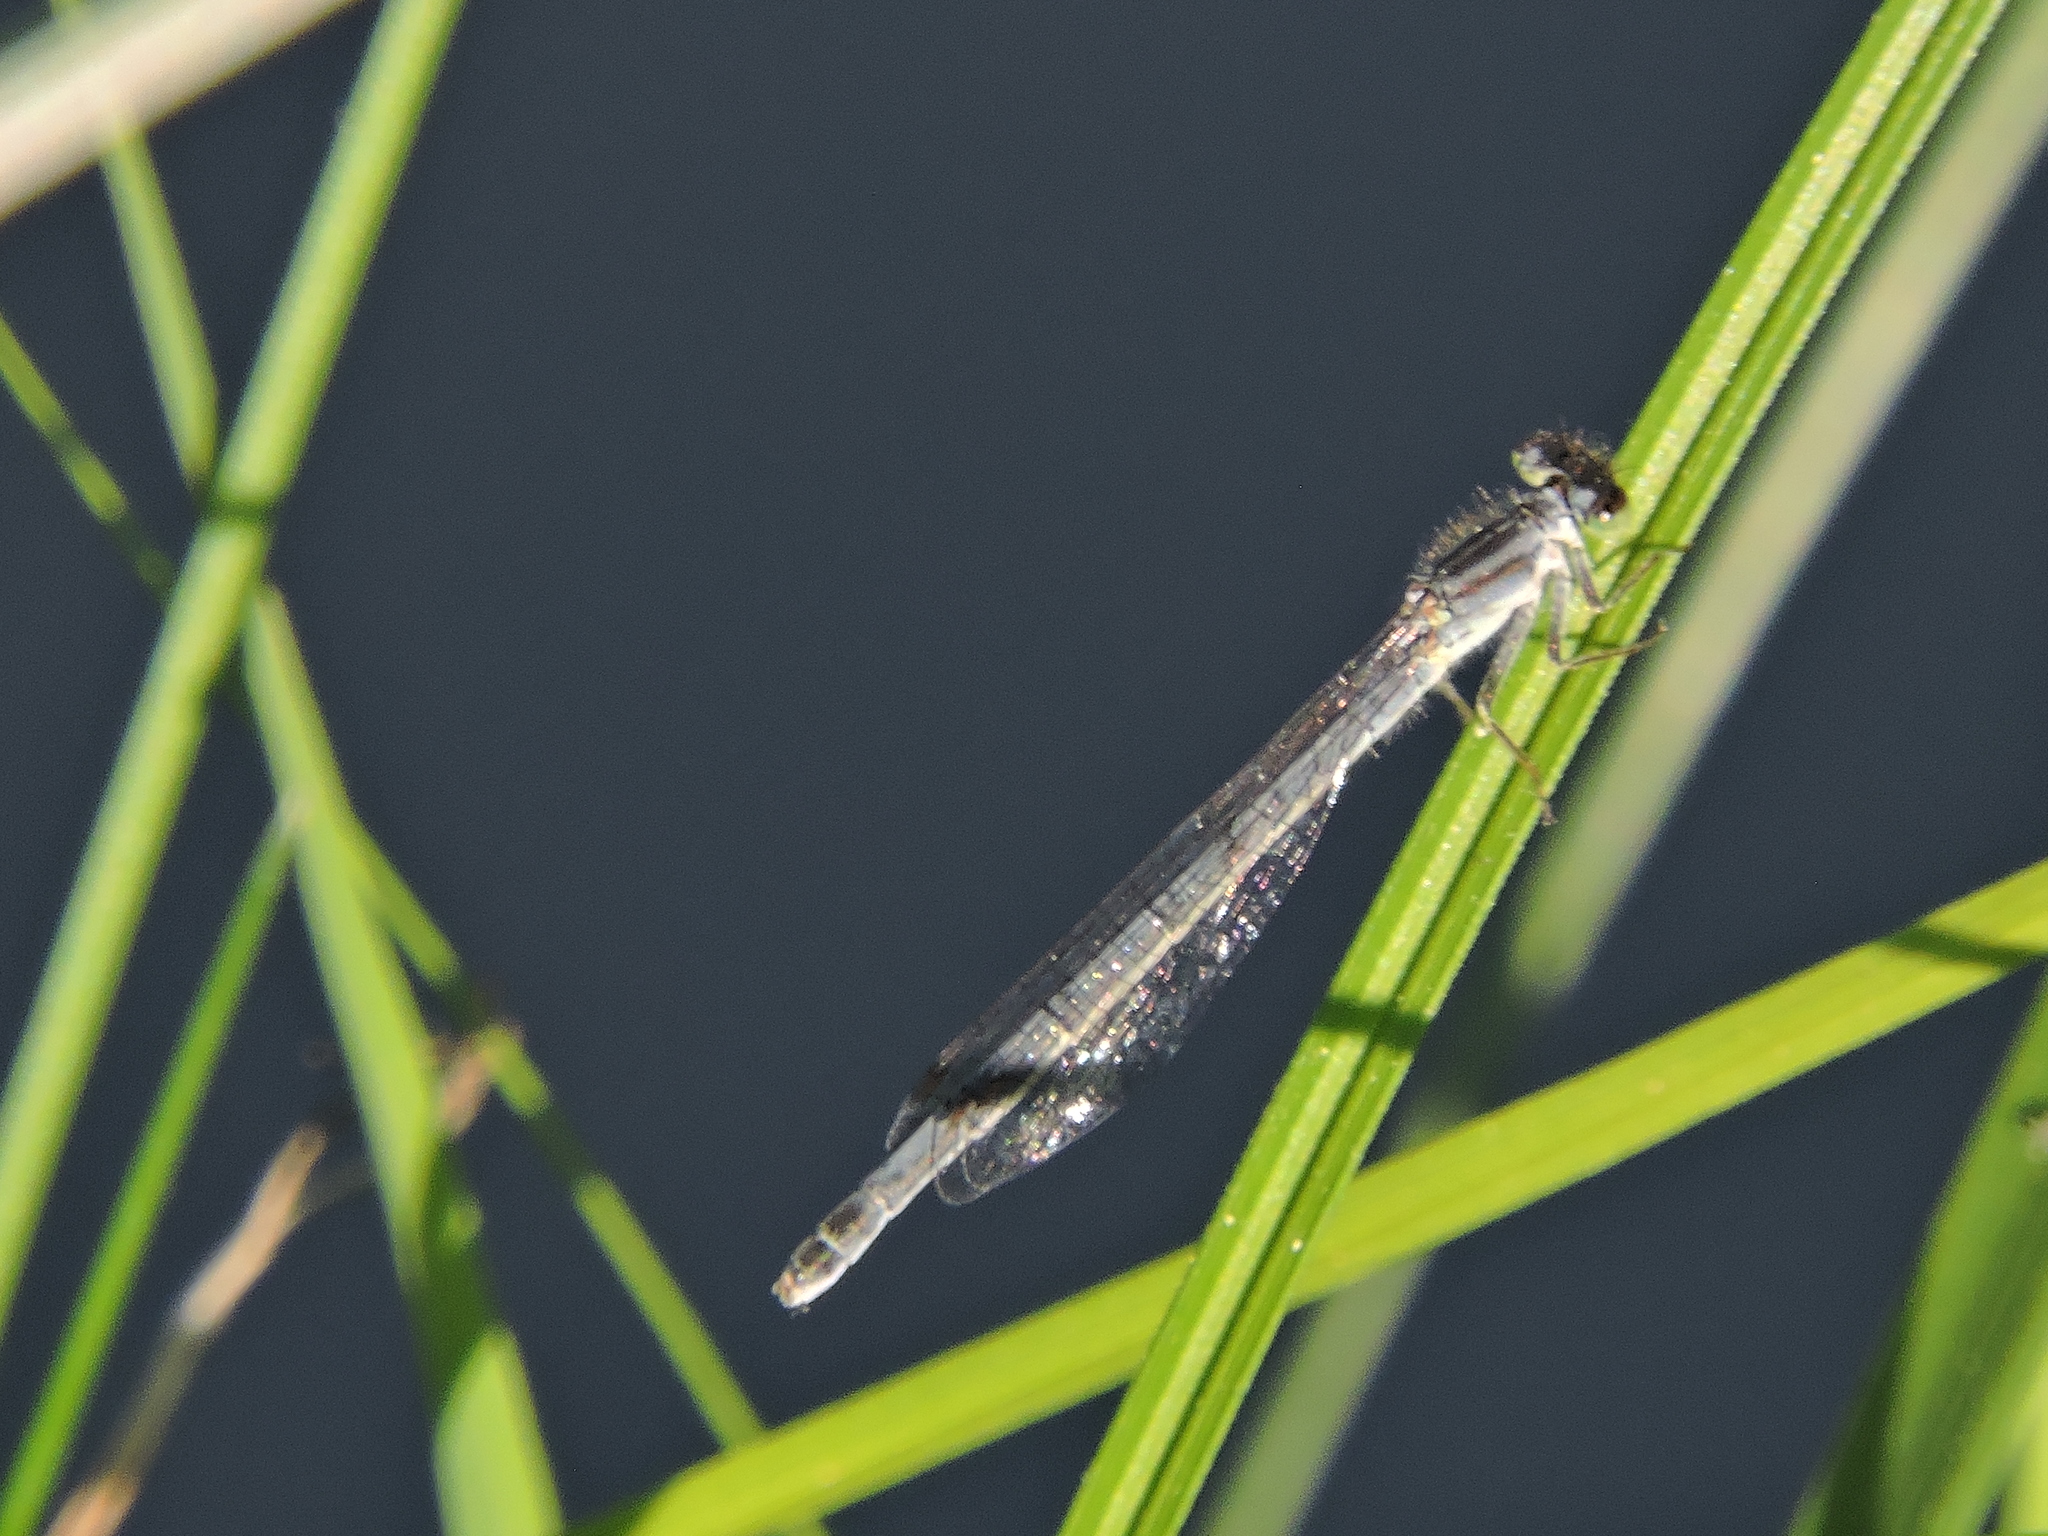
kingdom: Animalia
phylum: Arthropoda
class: Insecta
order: Odonata
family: Coenagrionidae
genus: Ischnura
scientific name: Ischnura verticalis
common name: Eastern forktail
